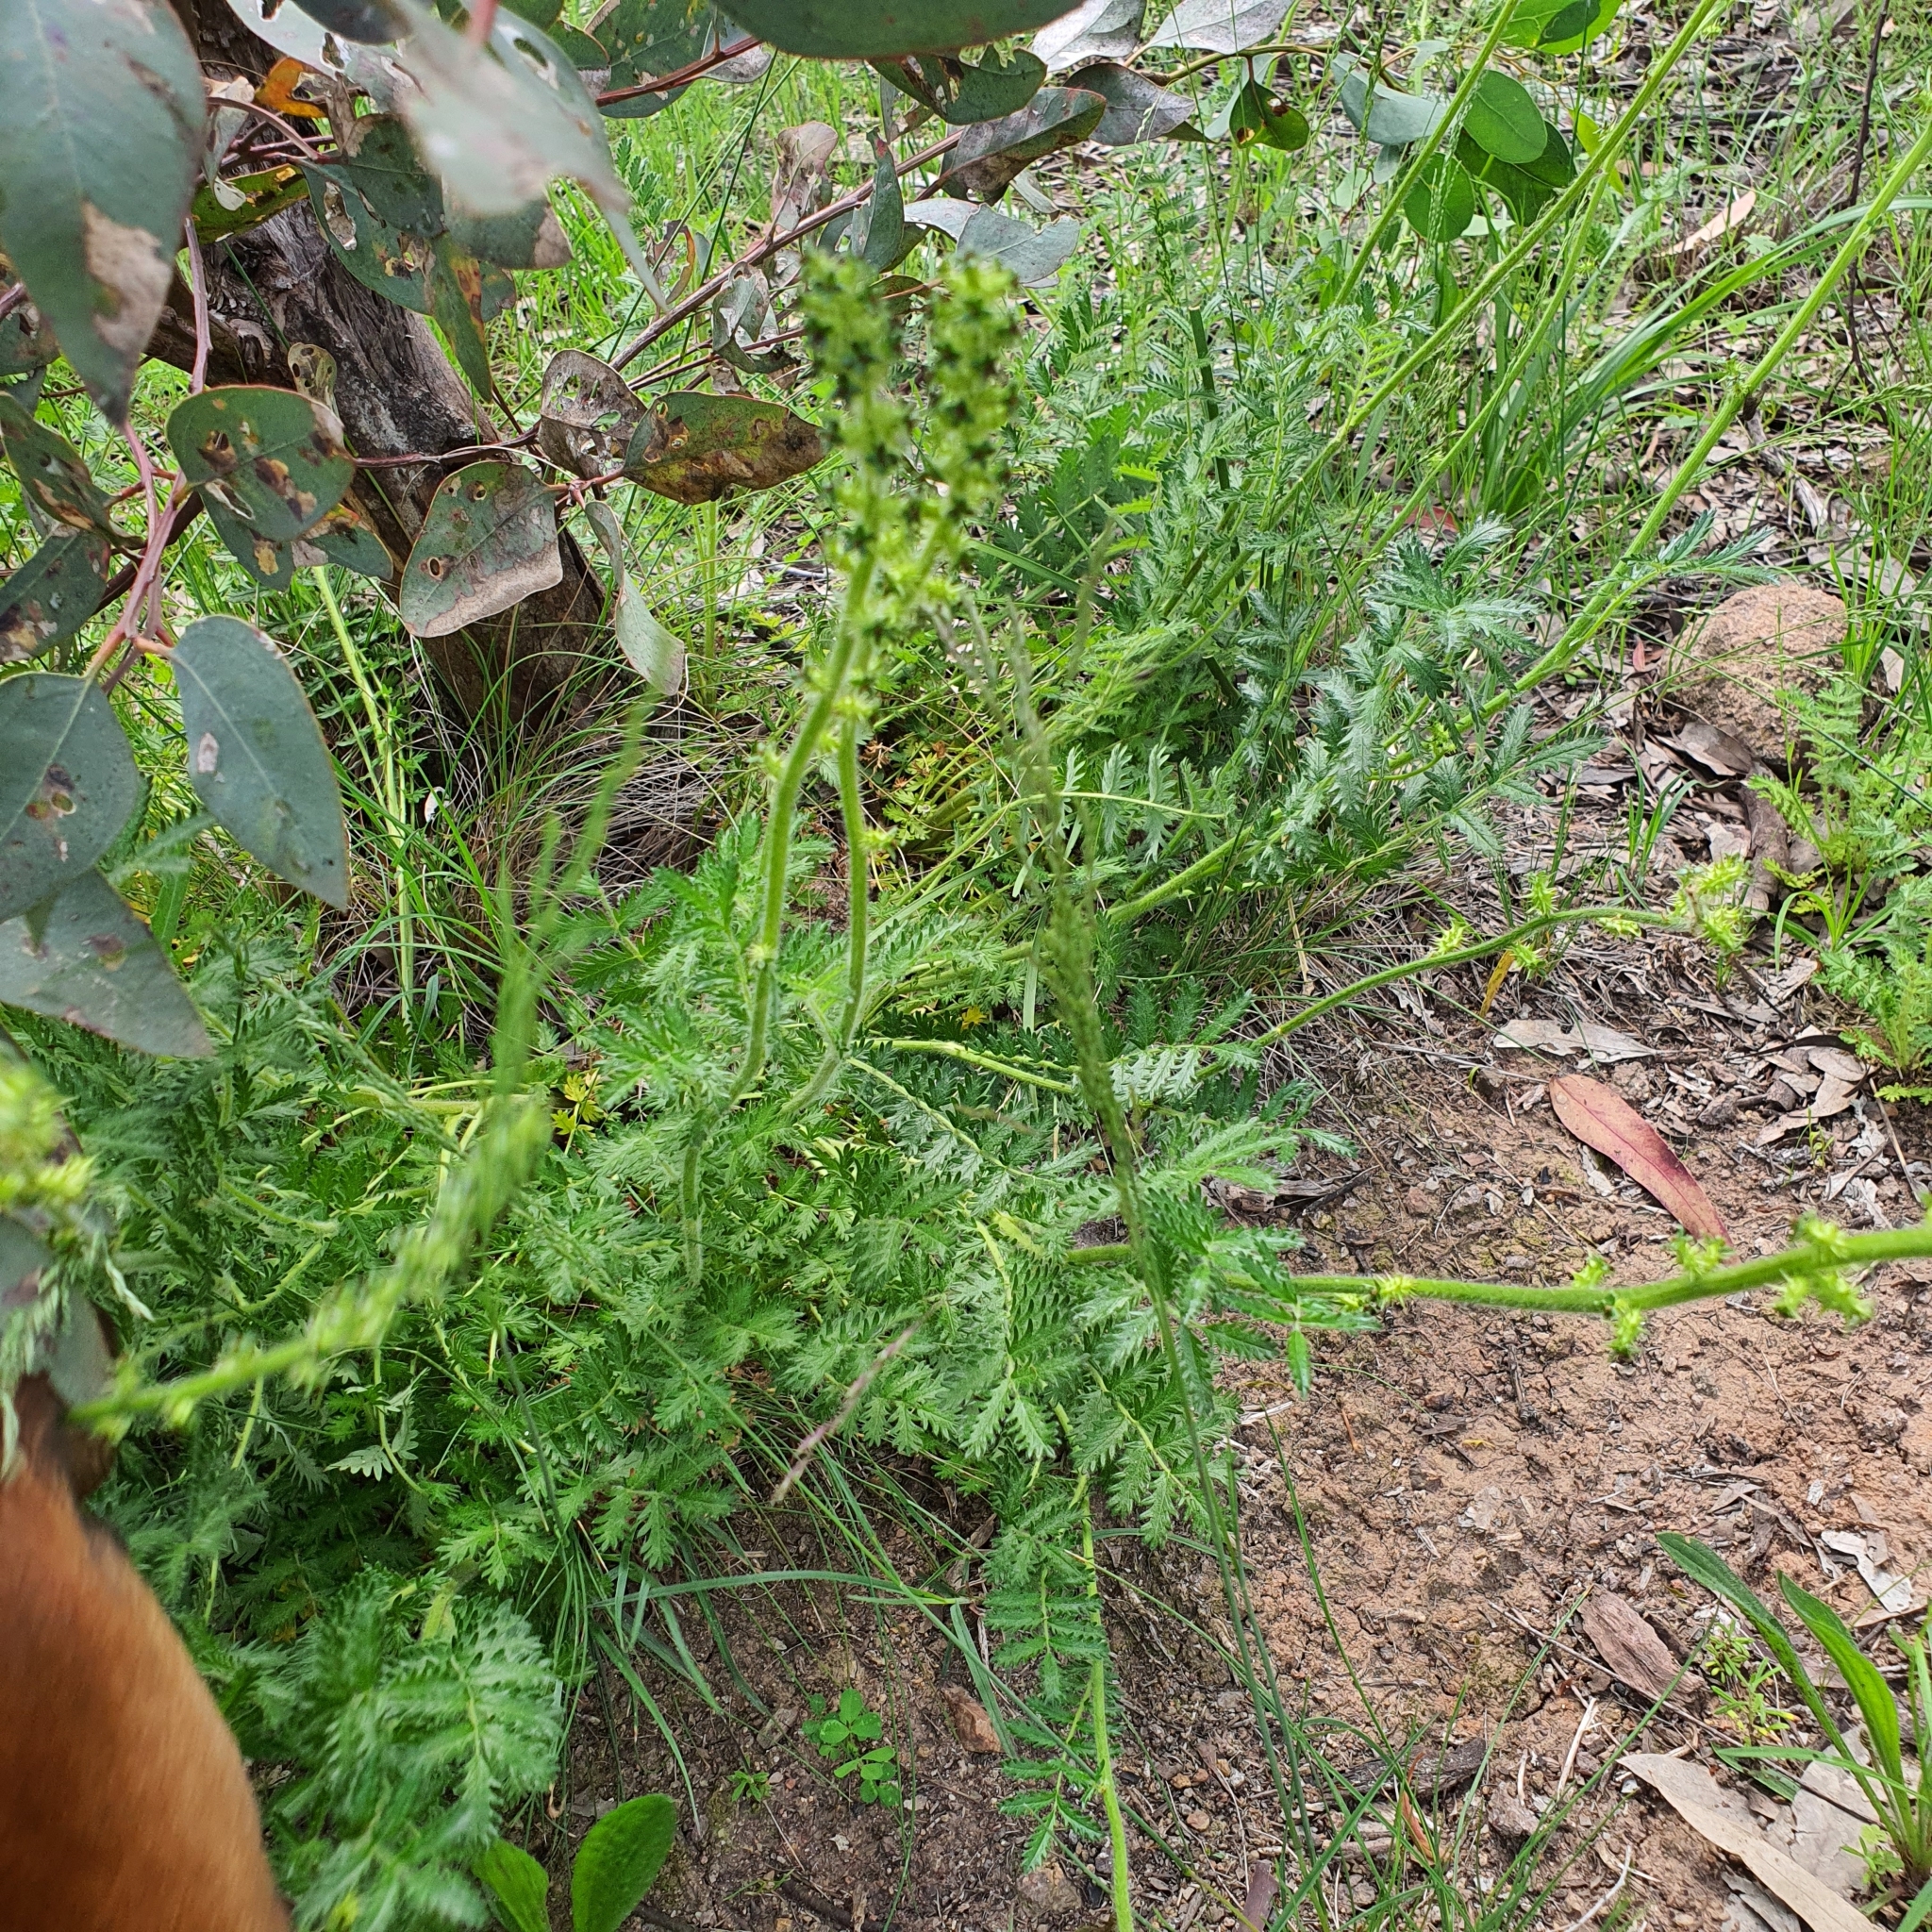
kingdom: Plantae
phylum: Tracheophyta
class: Magnoliopsida
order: Rosales
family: Rosaceae
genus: Acaena
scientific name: Acaena echinata
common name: Sheepbur
